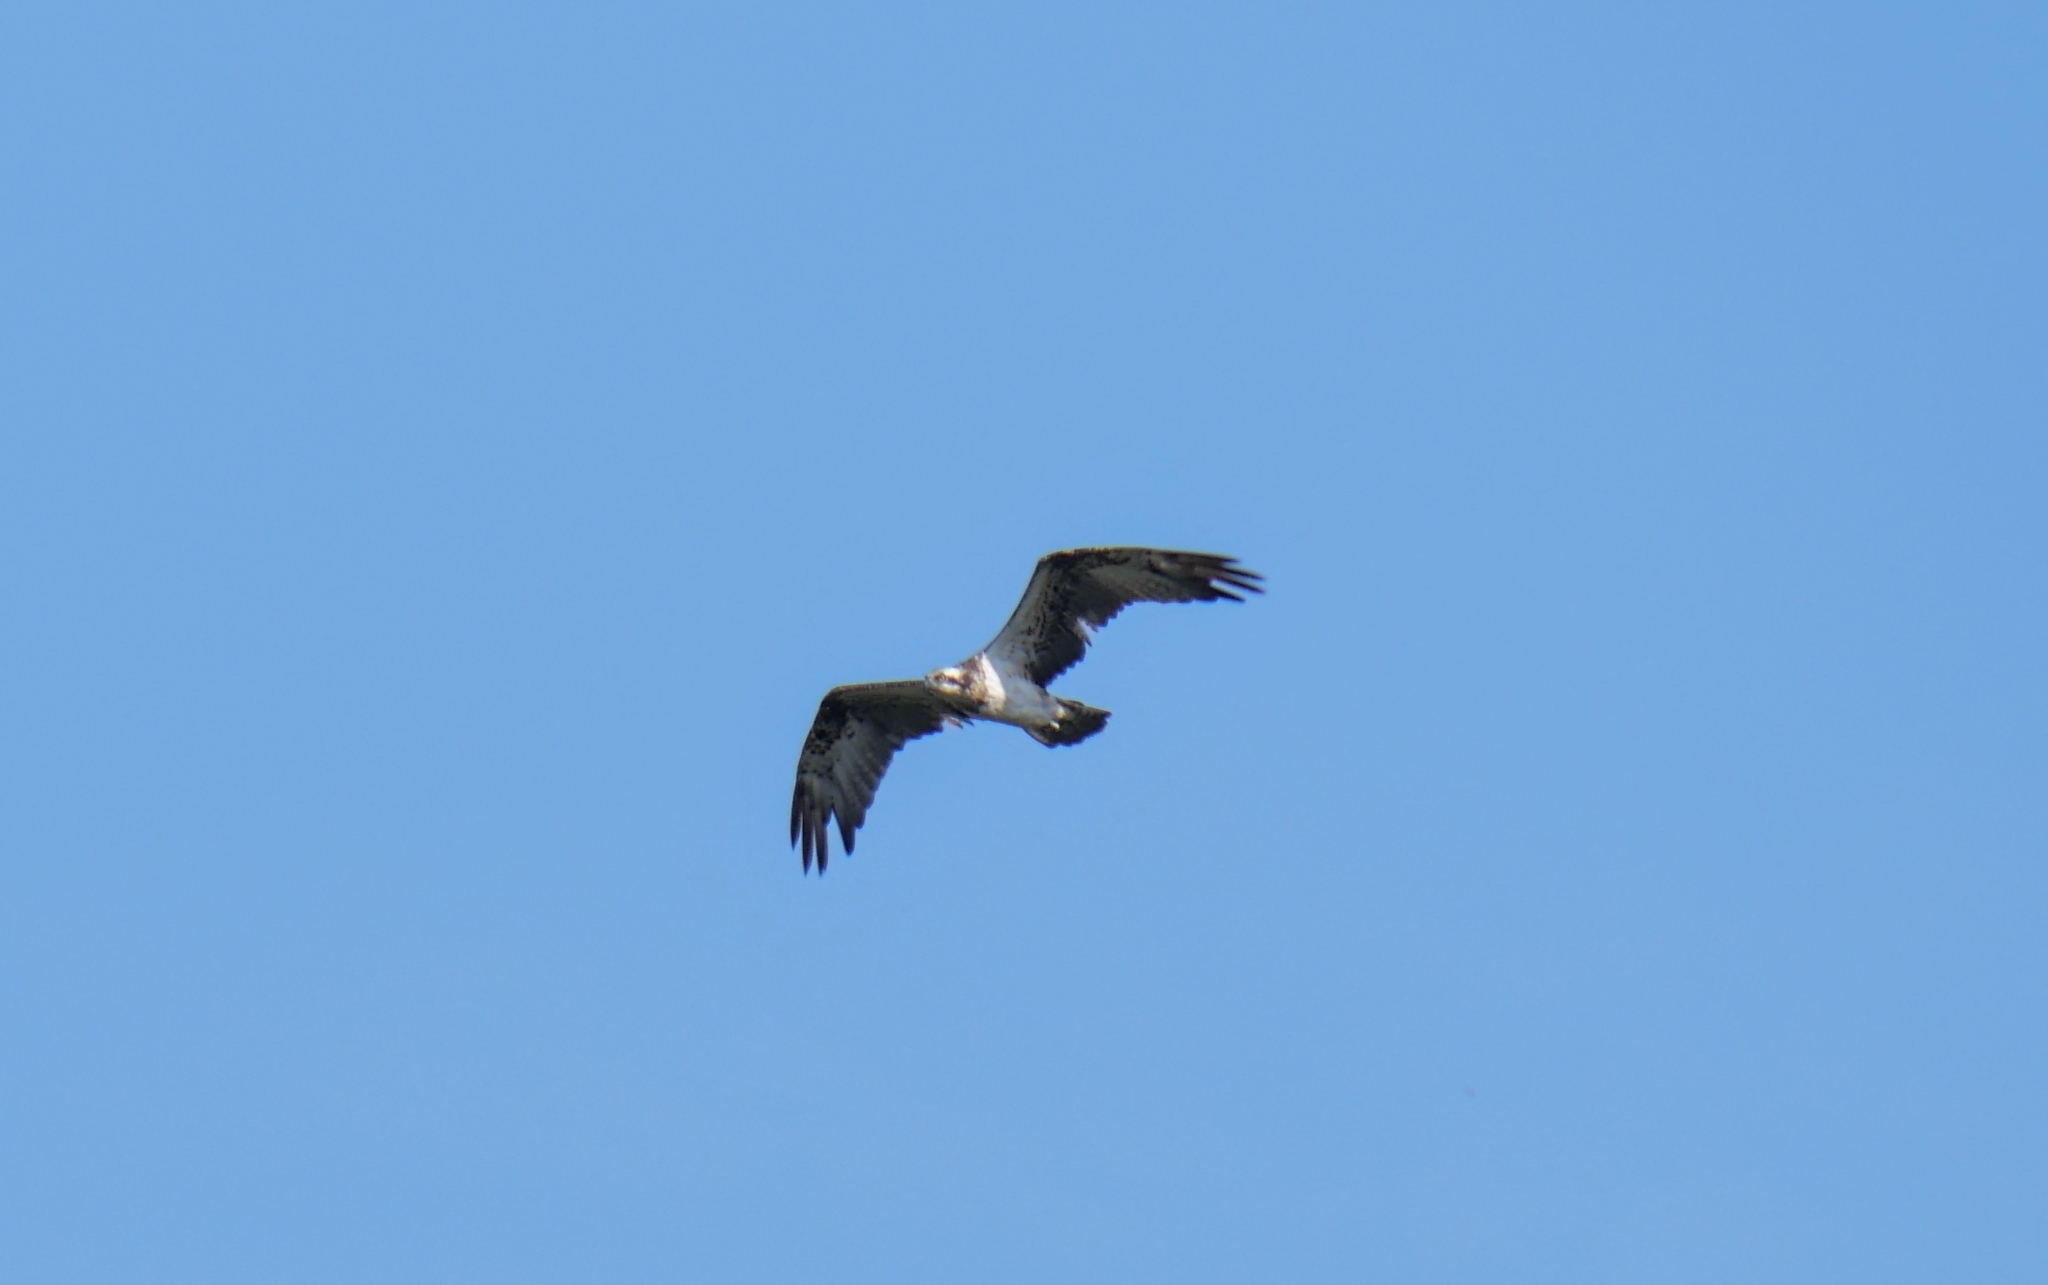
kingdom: Animalia
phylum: Chordata
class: Aves
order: Accipitriformes
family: Pandionidae
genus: Pandion
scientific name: Pandion haliaetus
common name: Osprey
